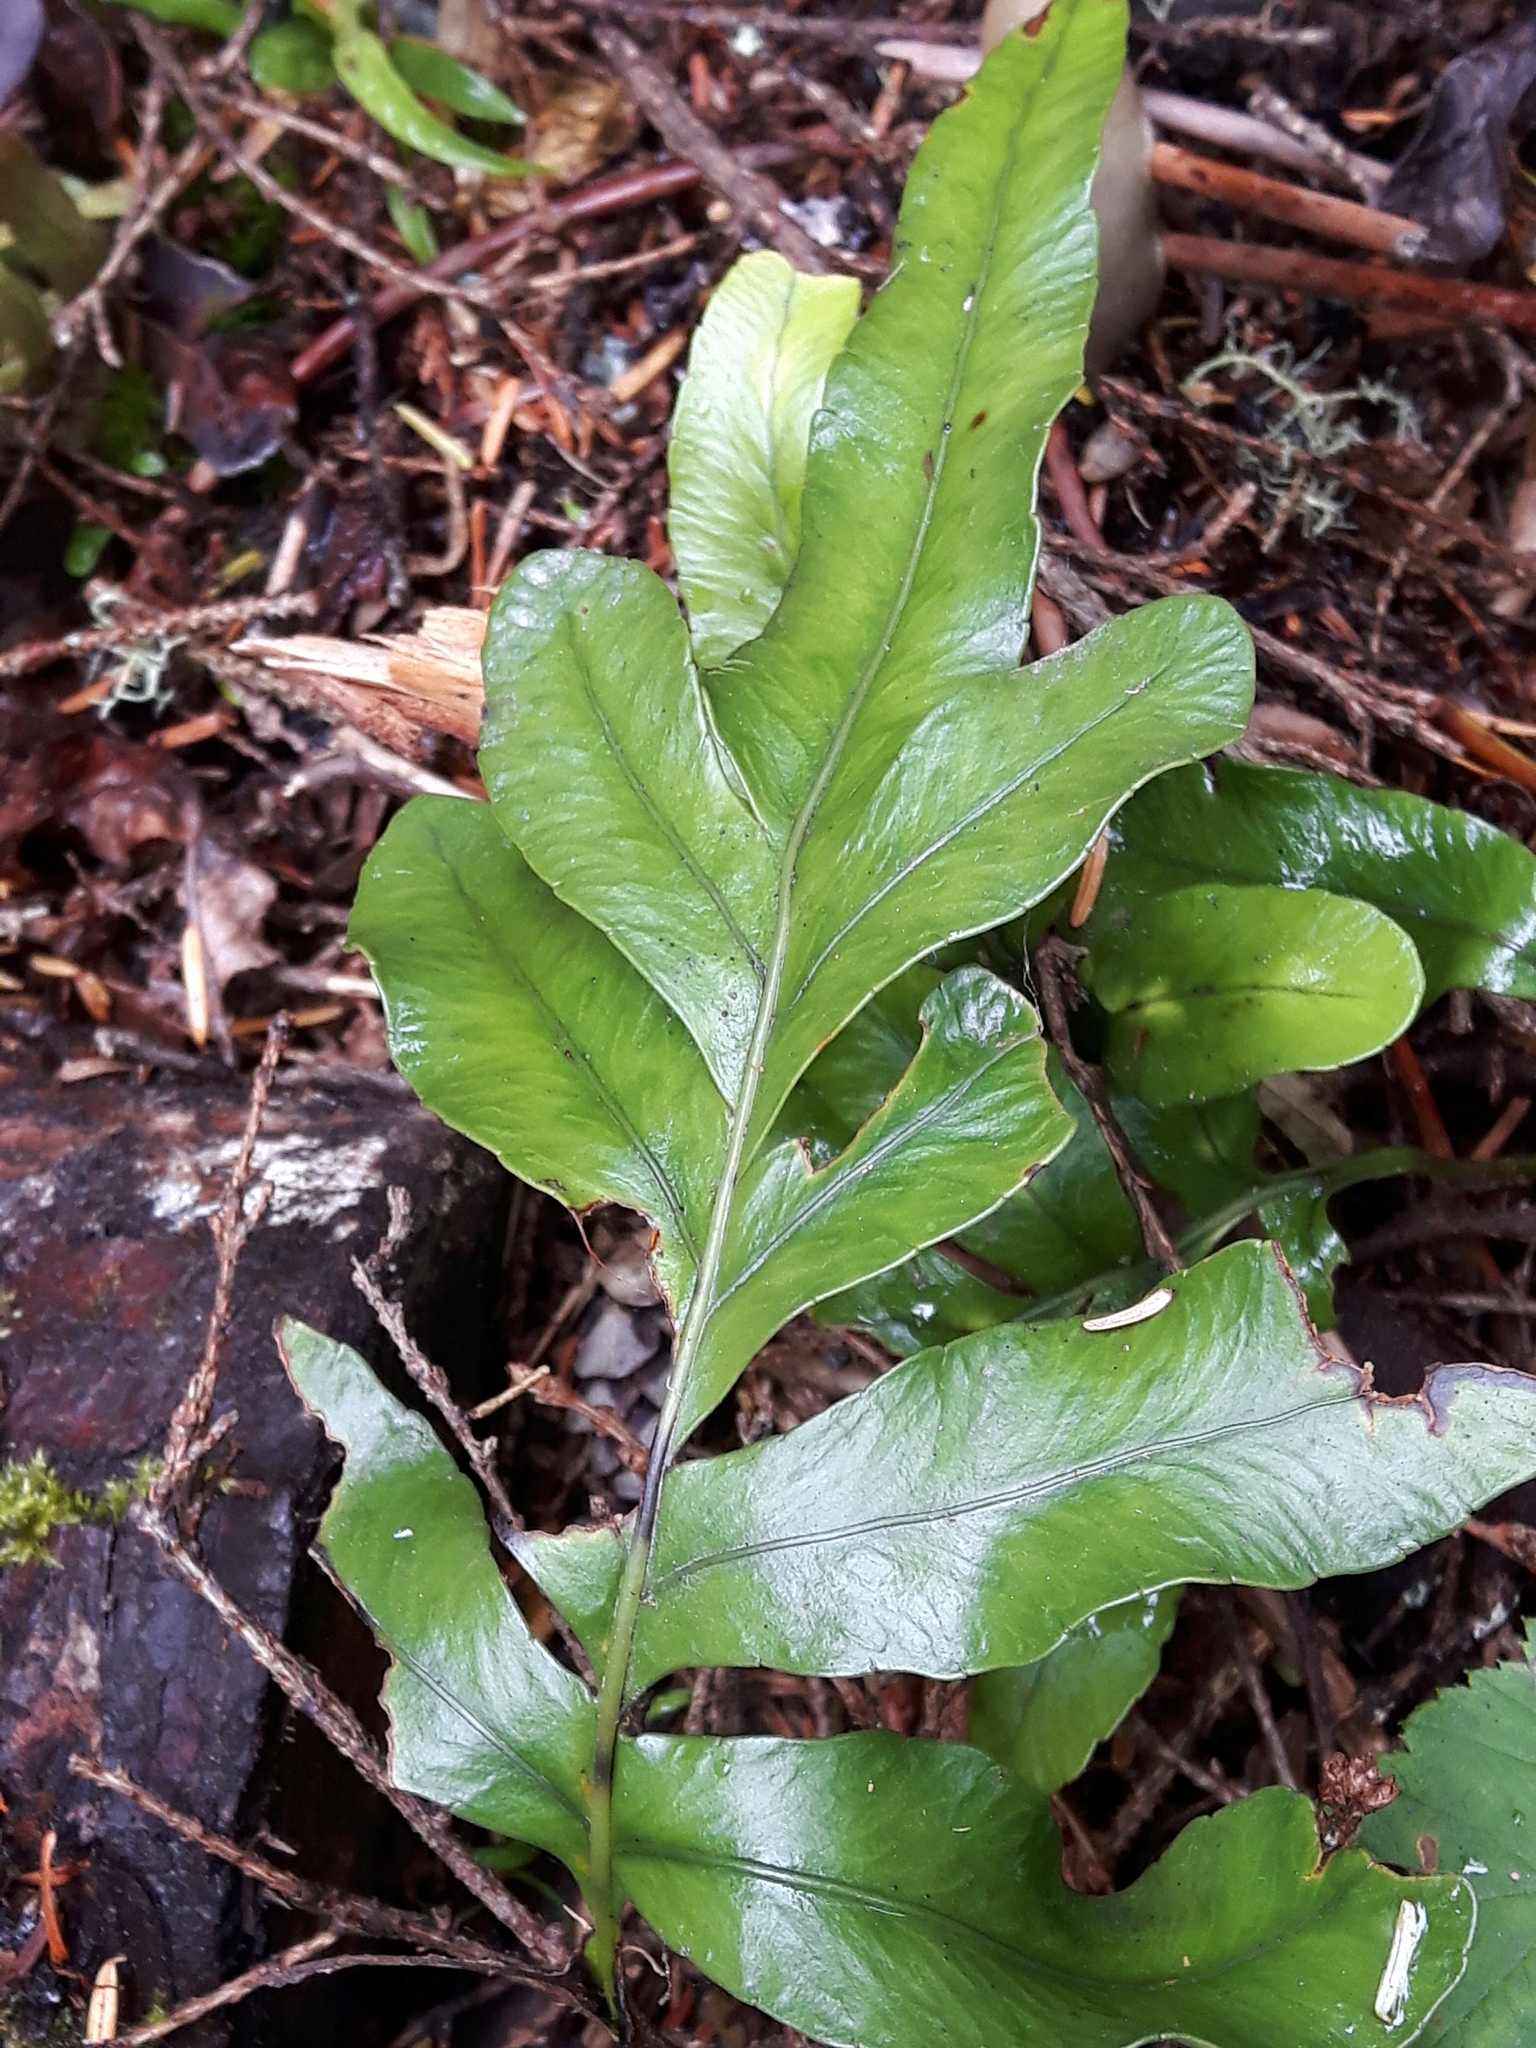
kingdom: Plantae
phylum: Tracheophyta
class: Polypodiopsida
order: Polypodiales
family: Polypodiaceae
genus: Polypodium
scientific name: Polypodium scouleri
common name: Scouler's polypody
